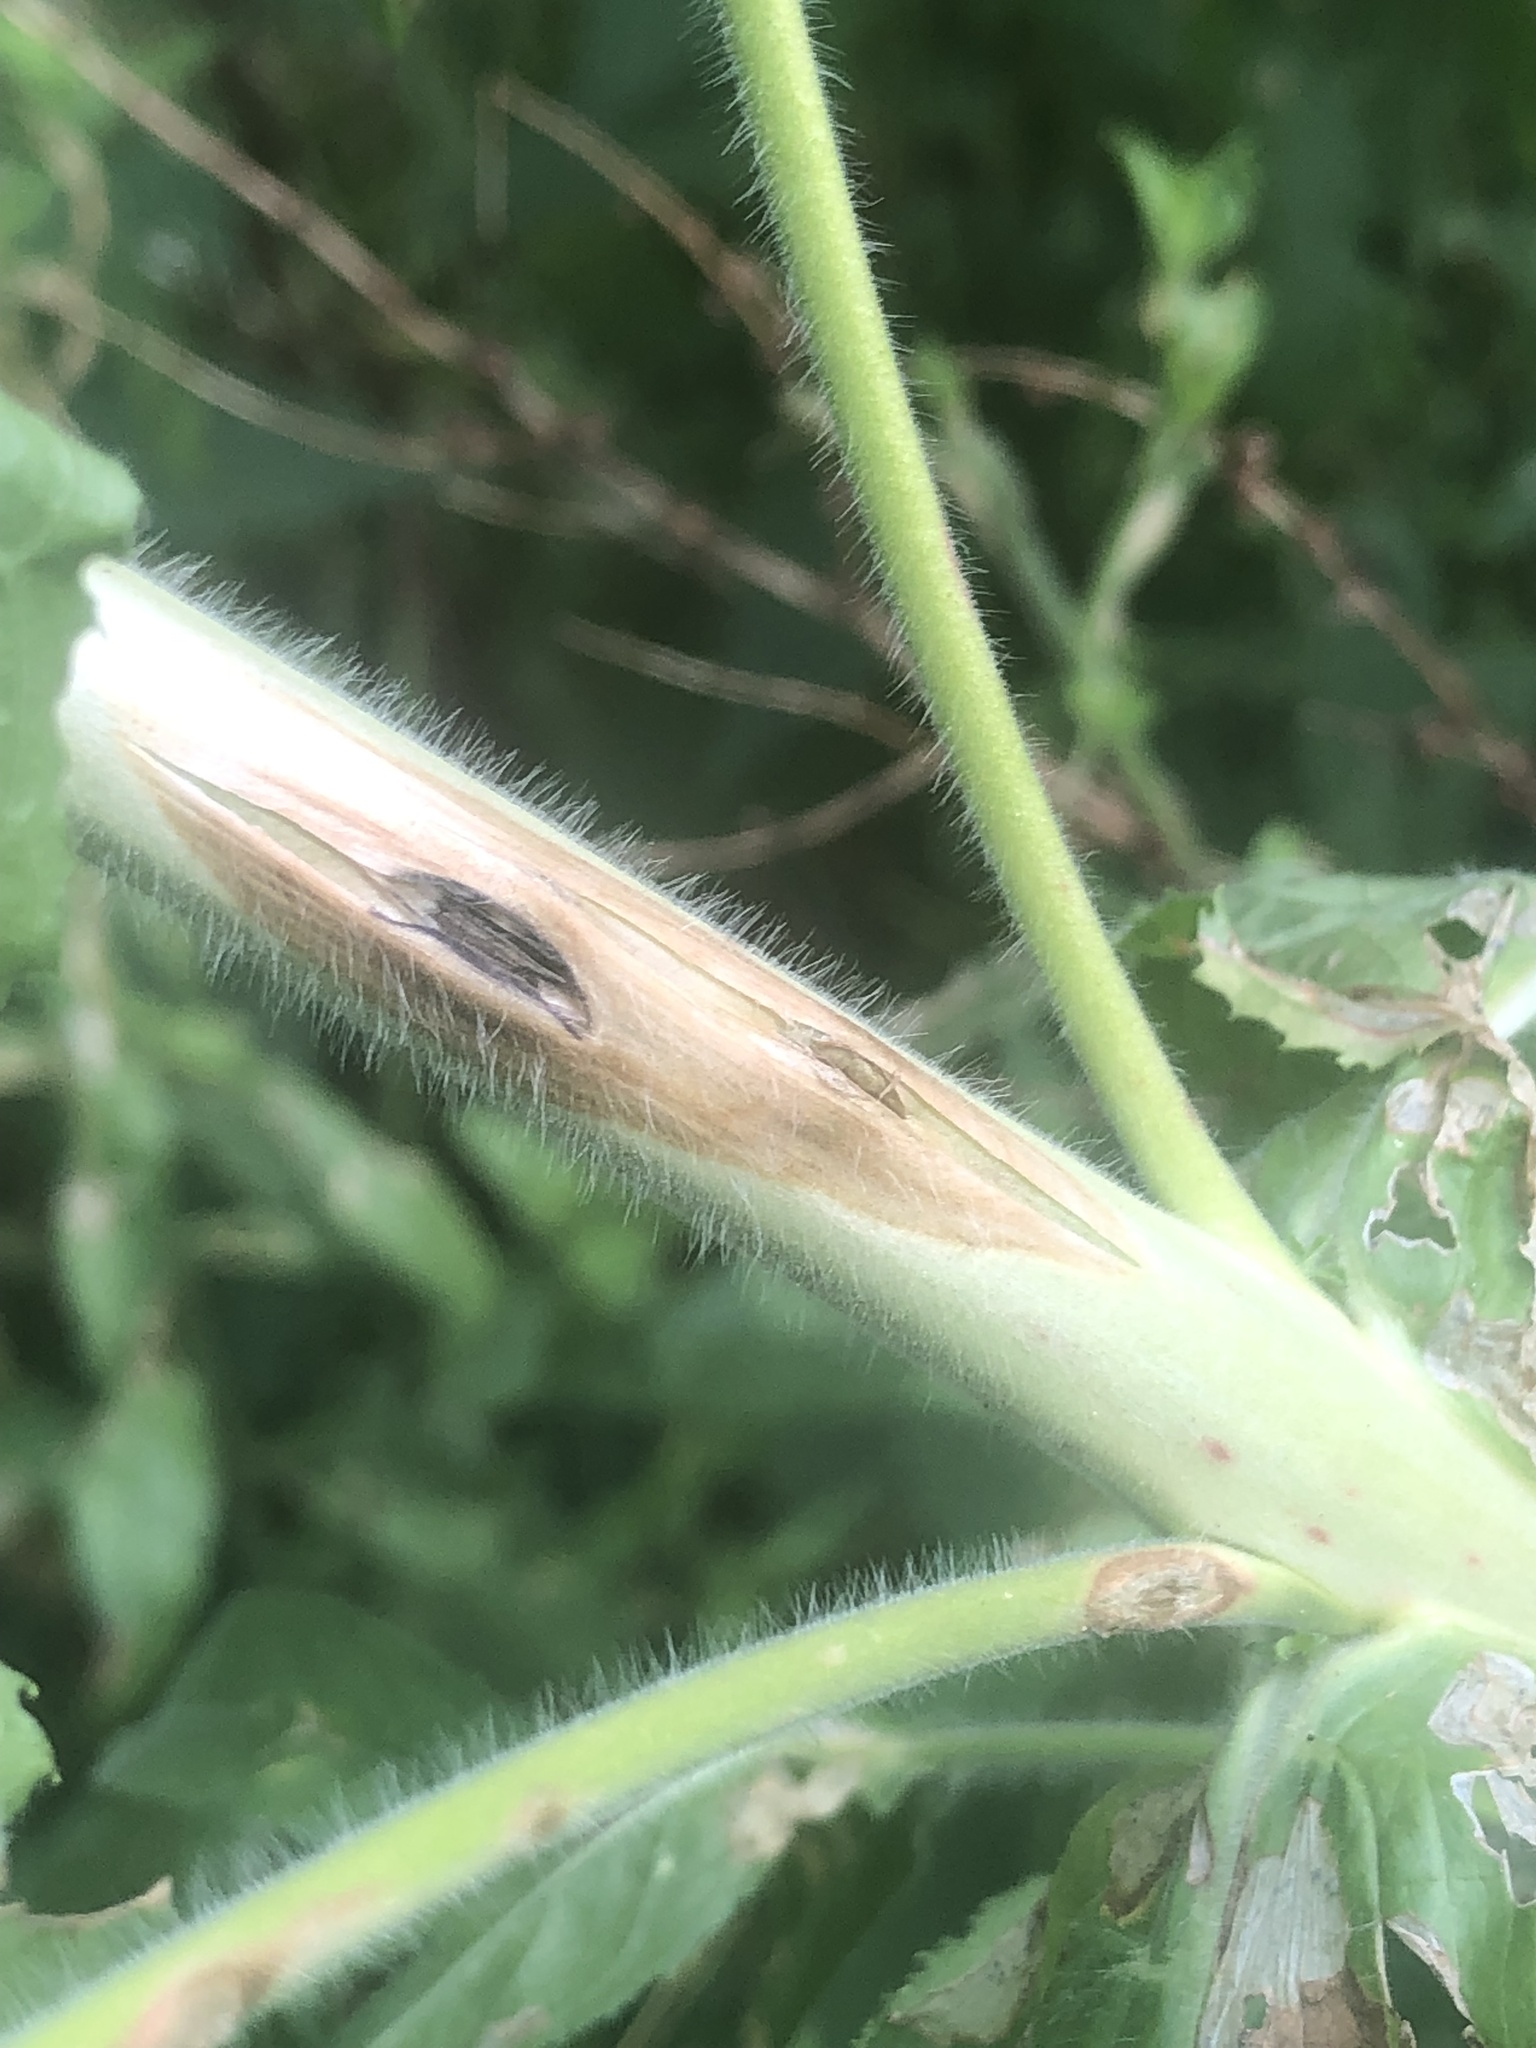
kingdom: Plantae
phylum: Tracheophyta
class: Magnoliopsida
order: Myrtales
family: Onagraceae
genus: Epilobium
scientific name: Epilobium hirsutum
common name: Great willowherb
